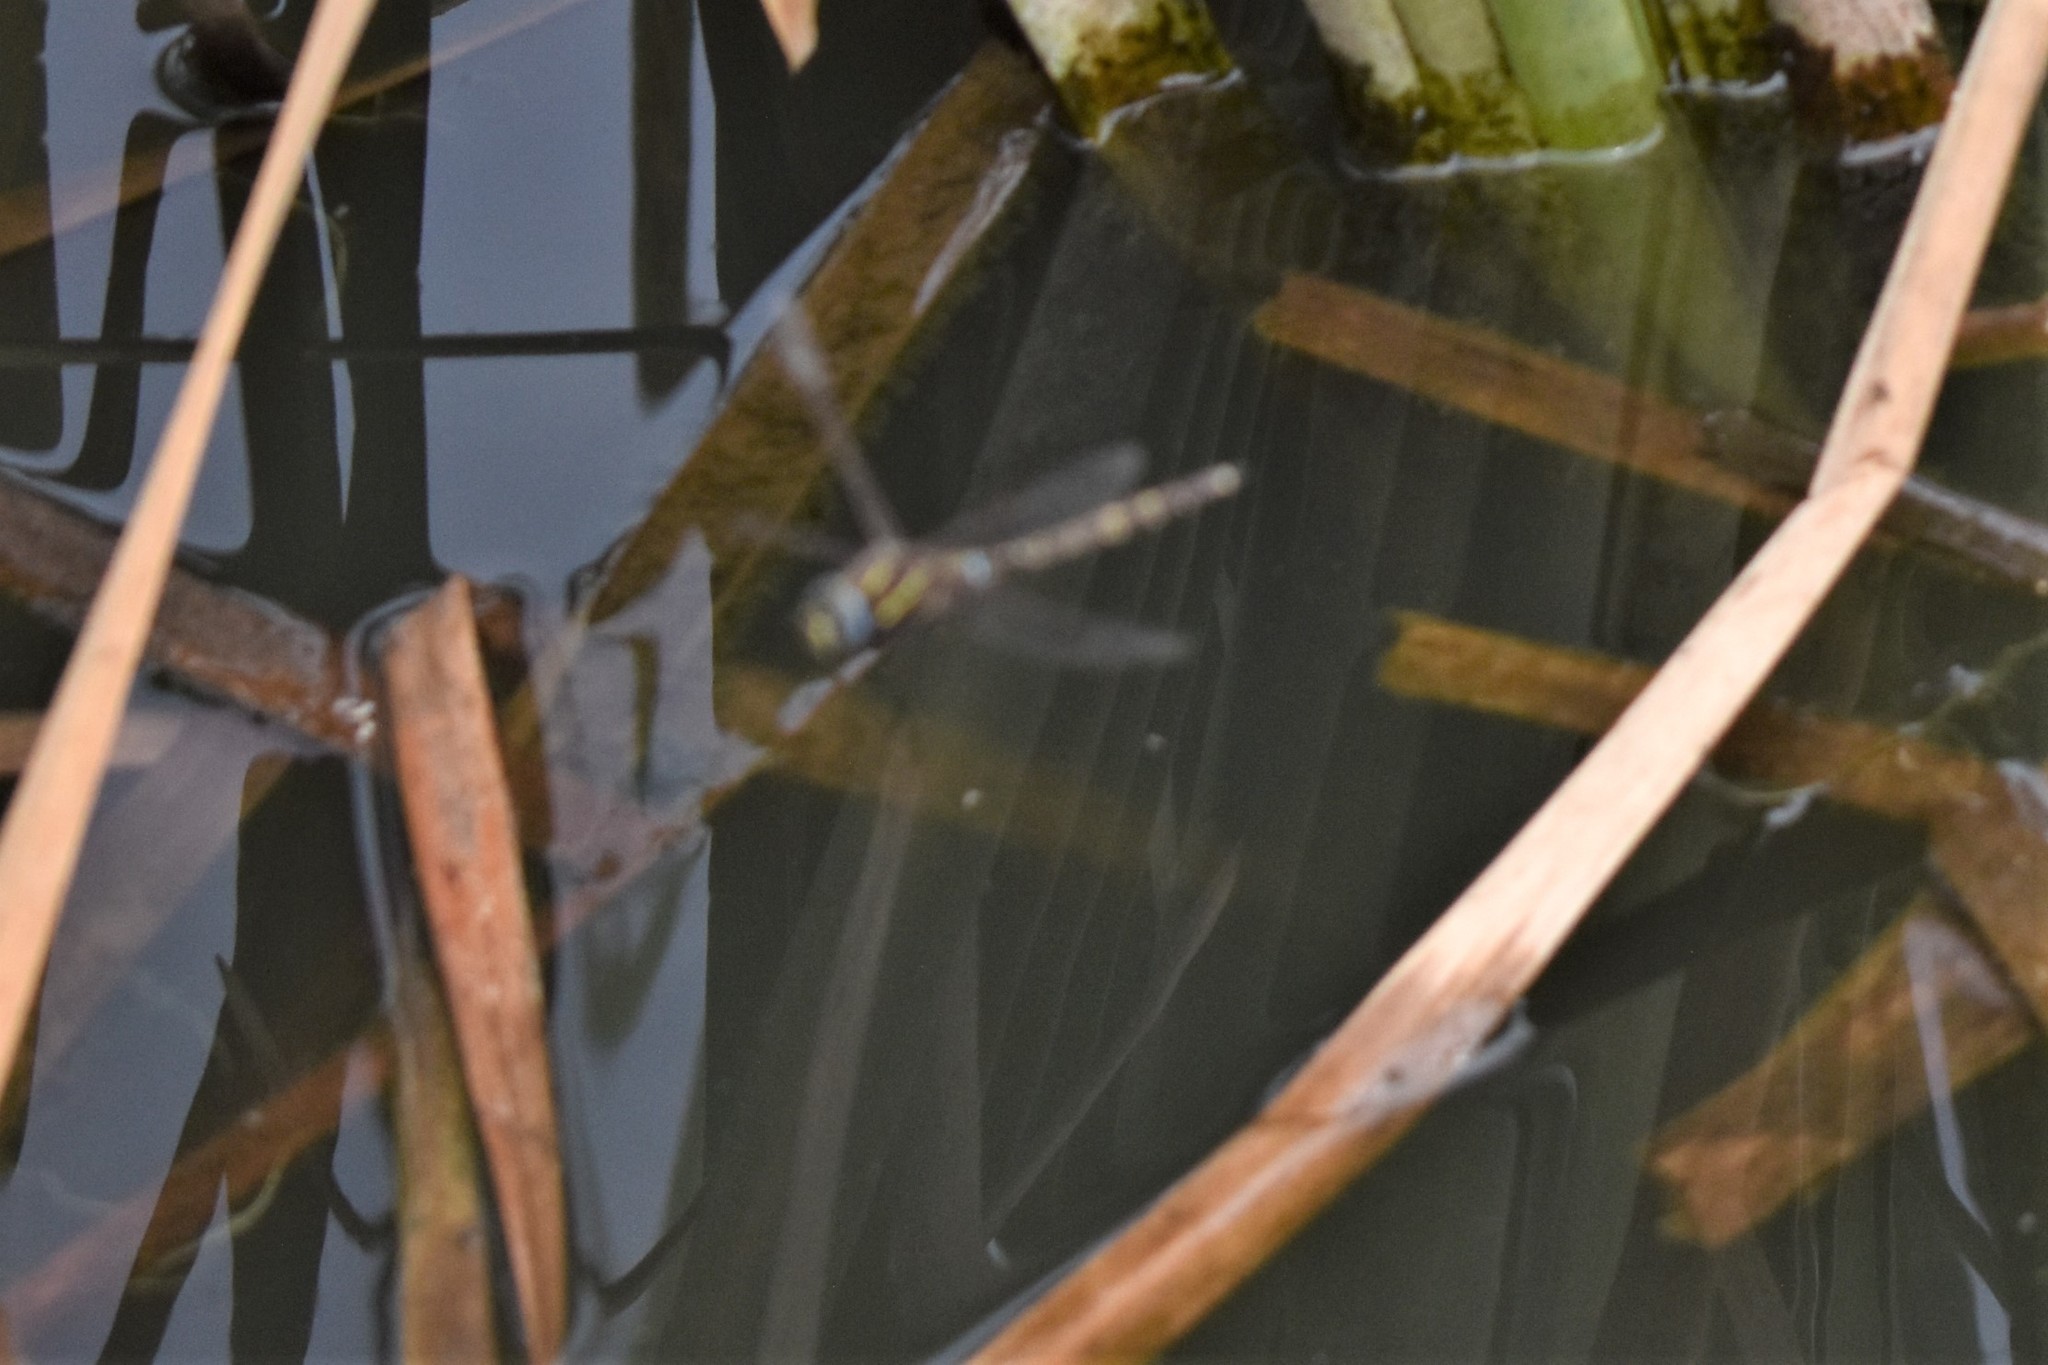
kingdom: Animalia
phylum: Arthropoda
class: Insecta
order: Odonata
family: Aeshnidae
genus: Aeshna
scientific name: Aeshna brevistyla
